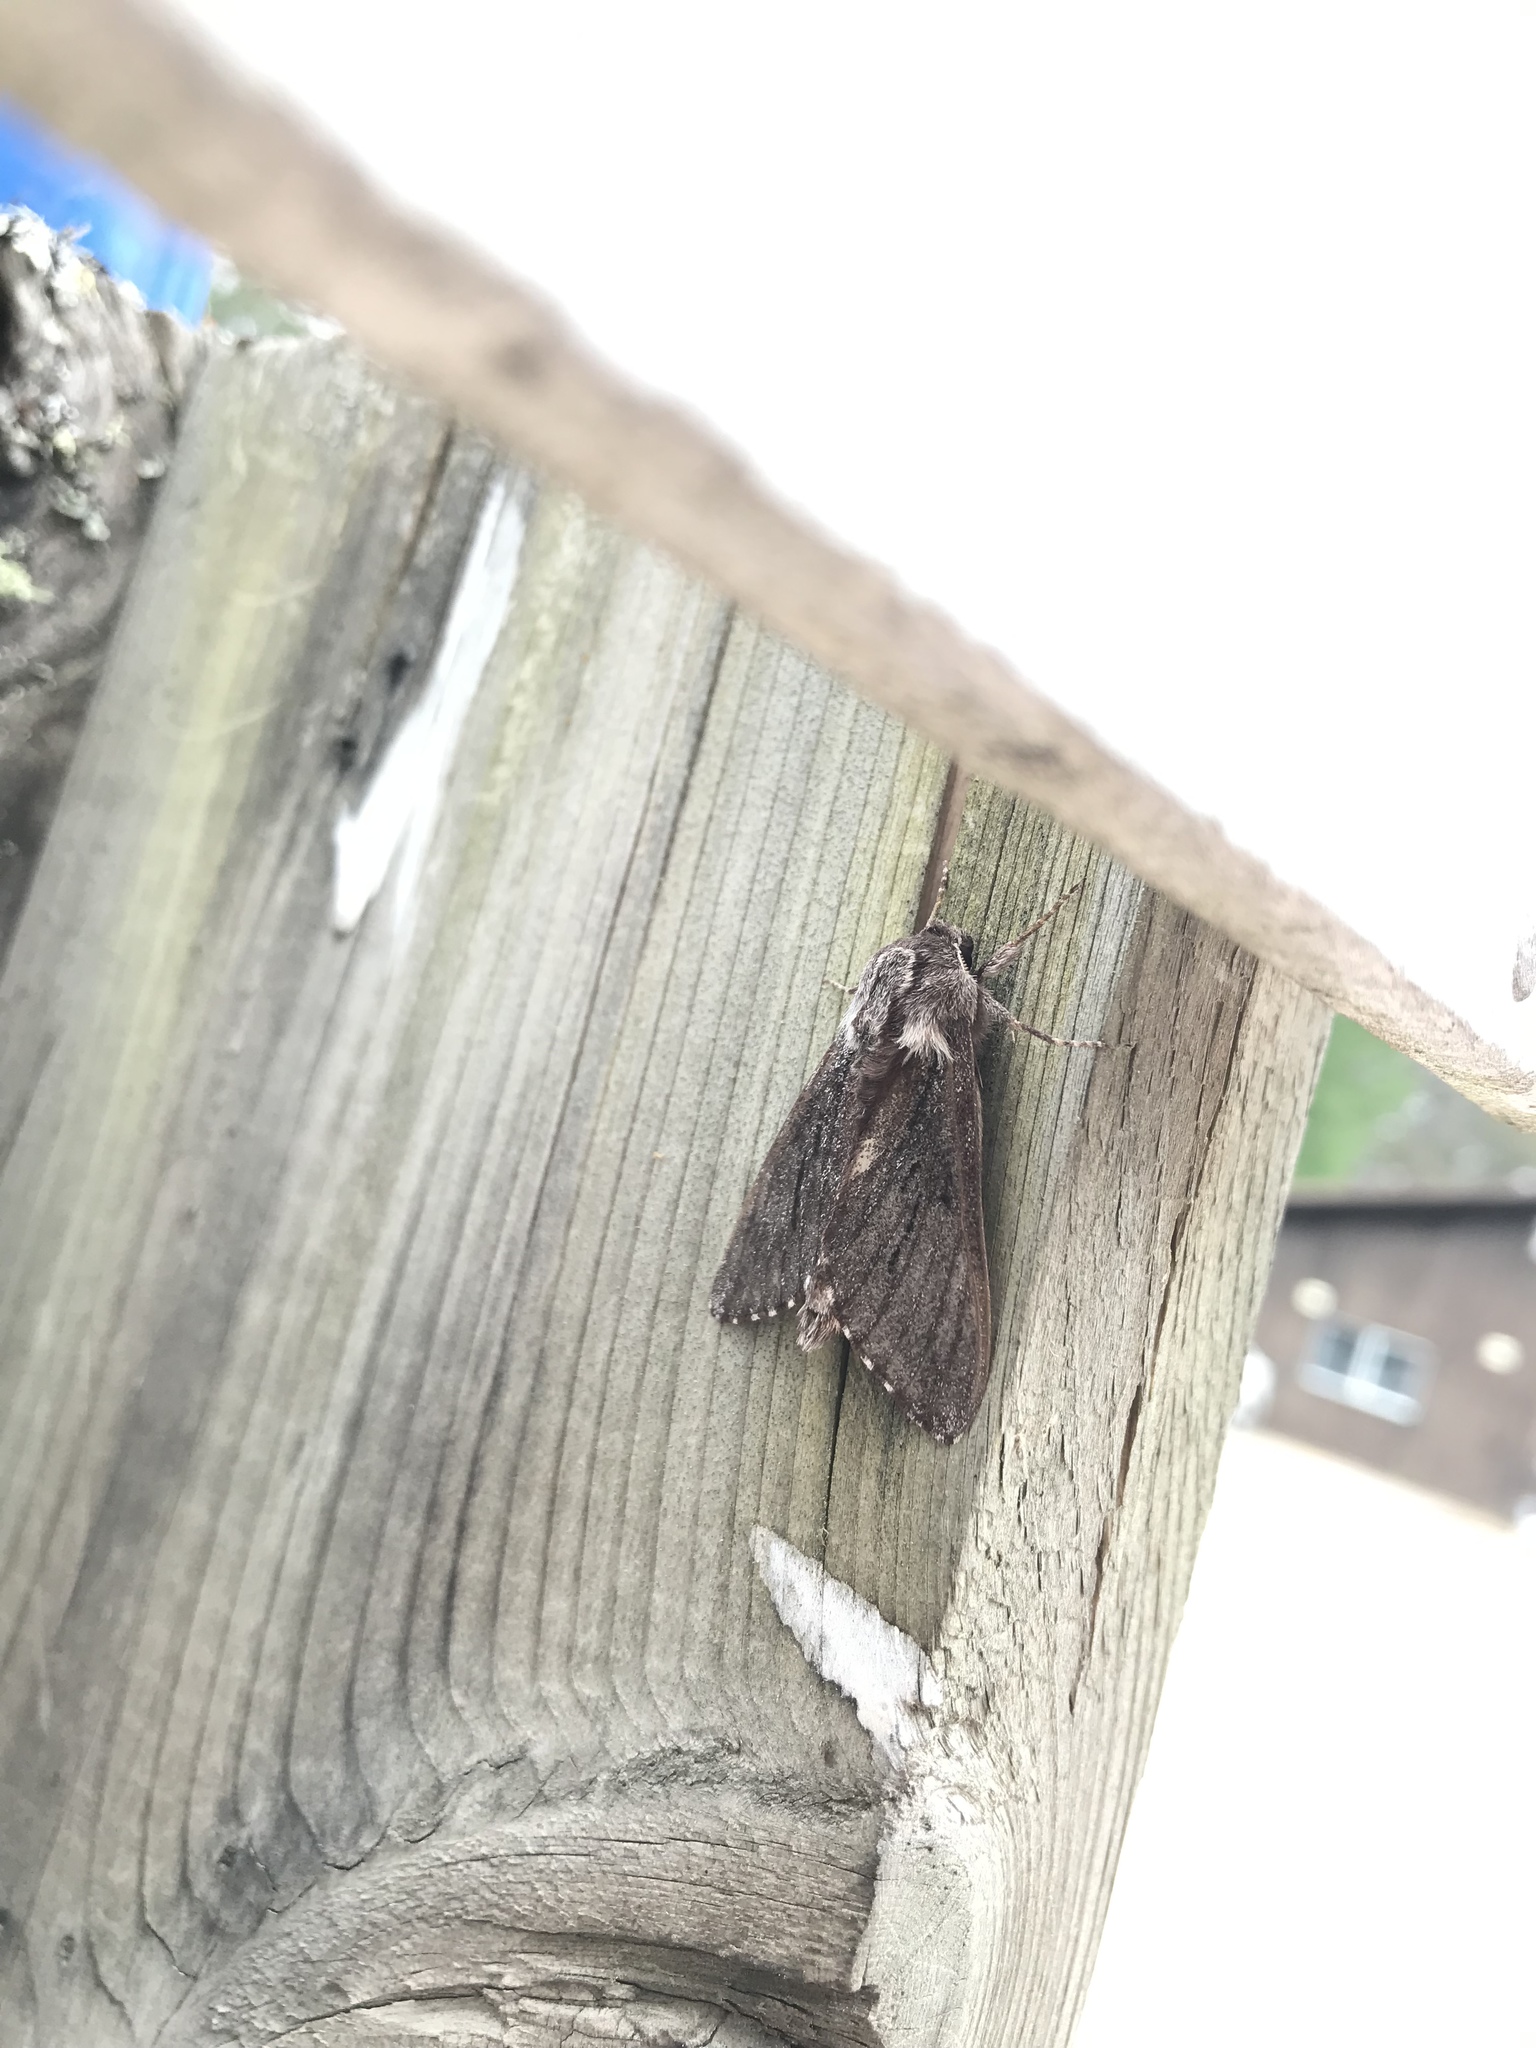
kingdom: Animalia
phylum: Arthropoda
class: Insecta
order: Lepidoptera
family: Sphingidae
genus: Lapara
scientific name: Lapara bombycoides
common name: Northern pine sphinx
